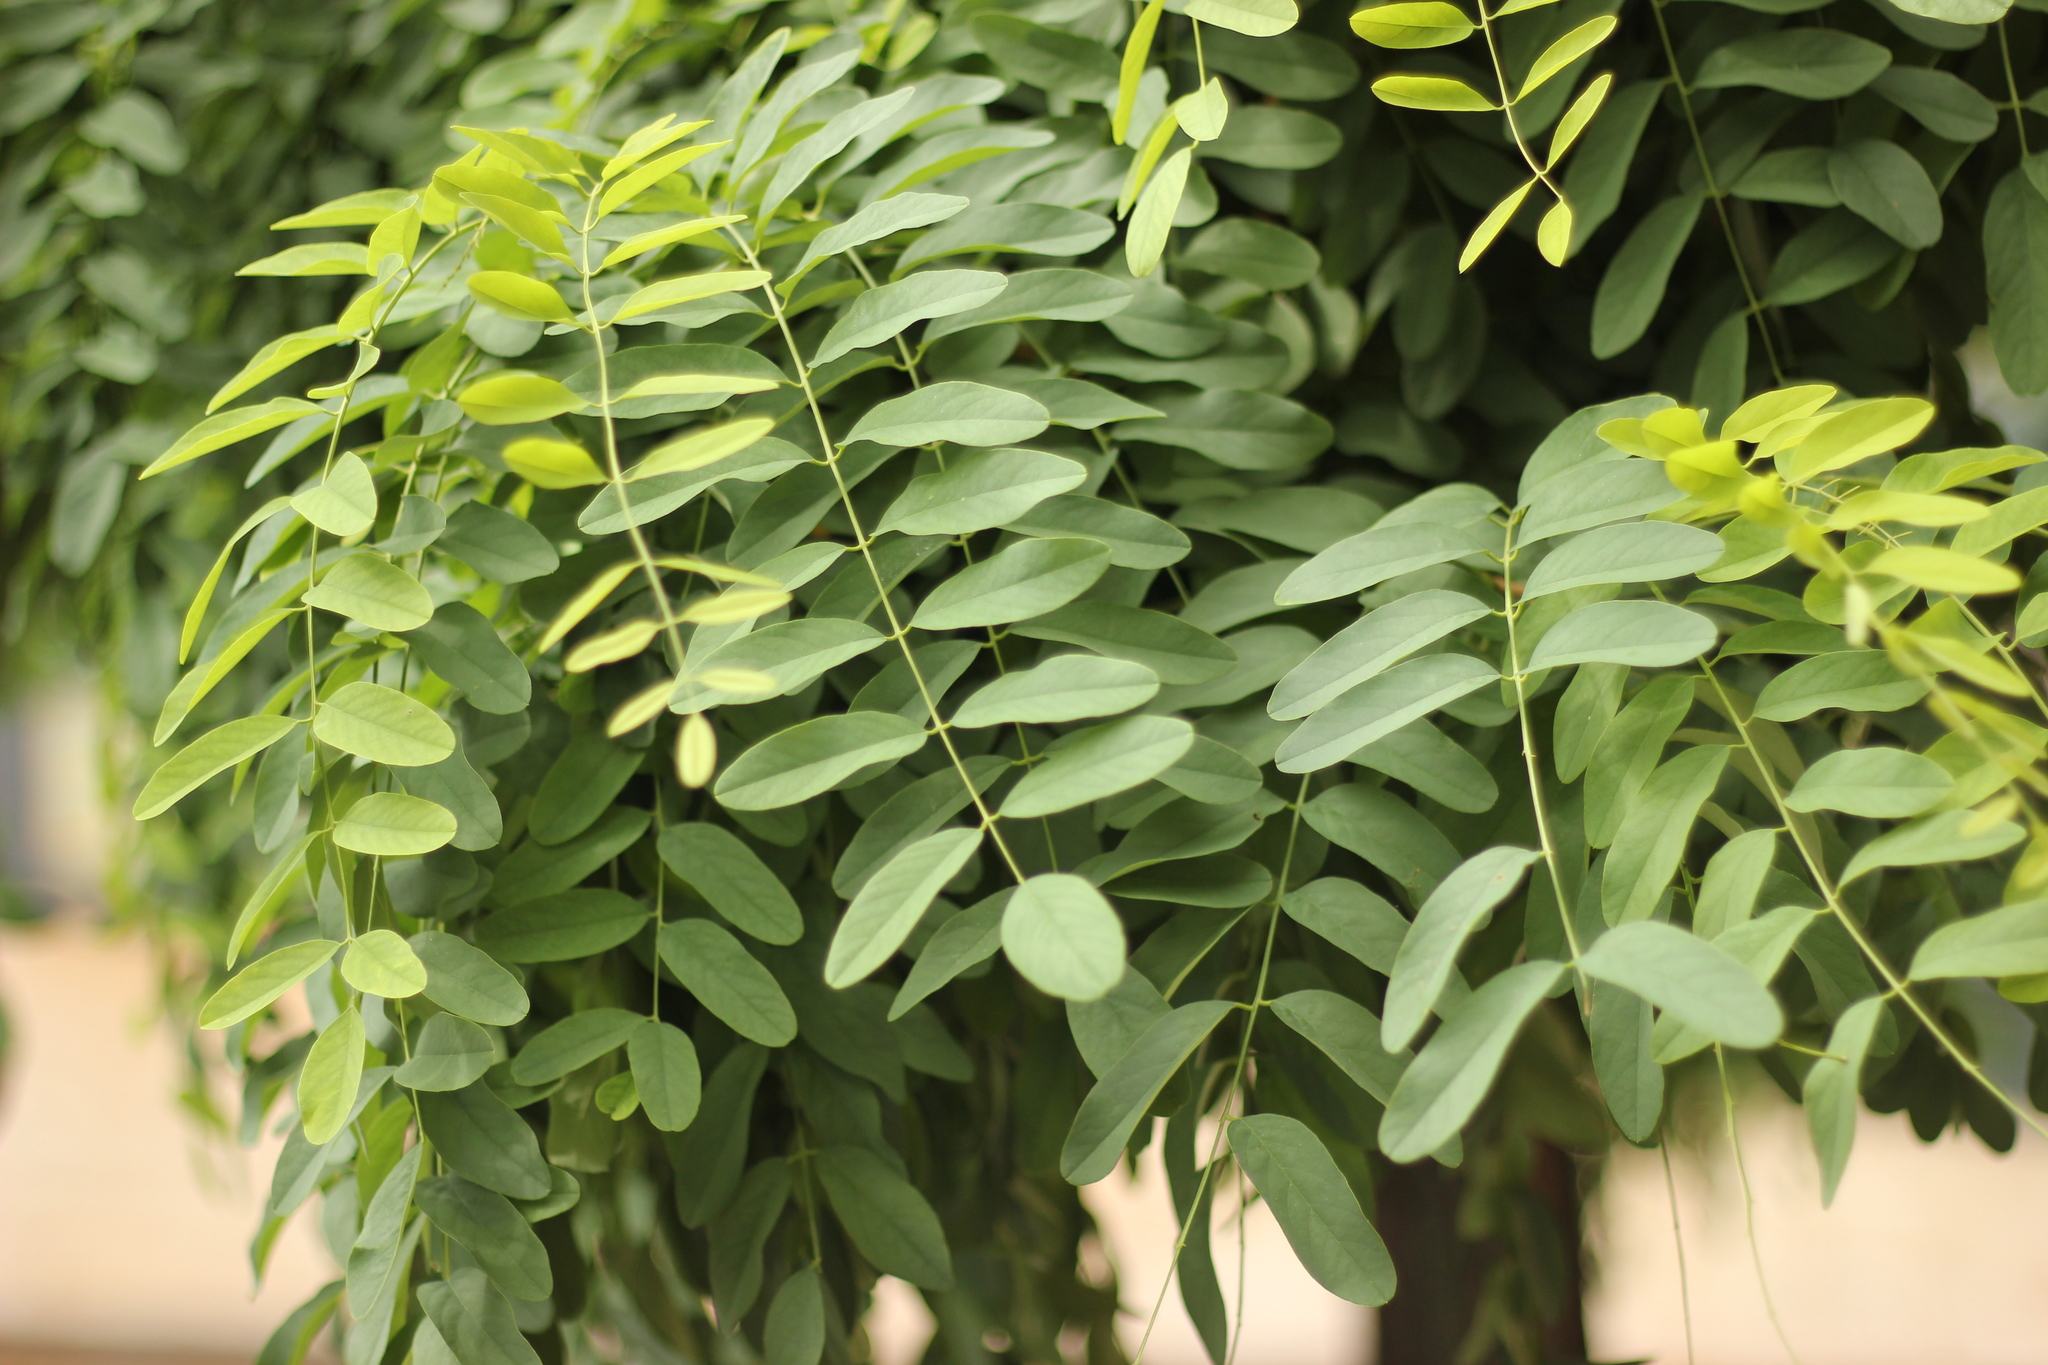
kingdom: Plantae
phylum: Tracheophyta
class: Magnoliopsida
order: Fabales
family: Fabaceae
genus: Robinia
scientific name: Robinia pseudoacacia
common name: Black locust
